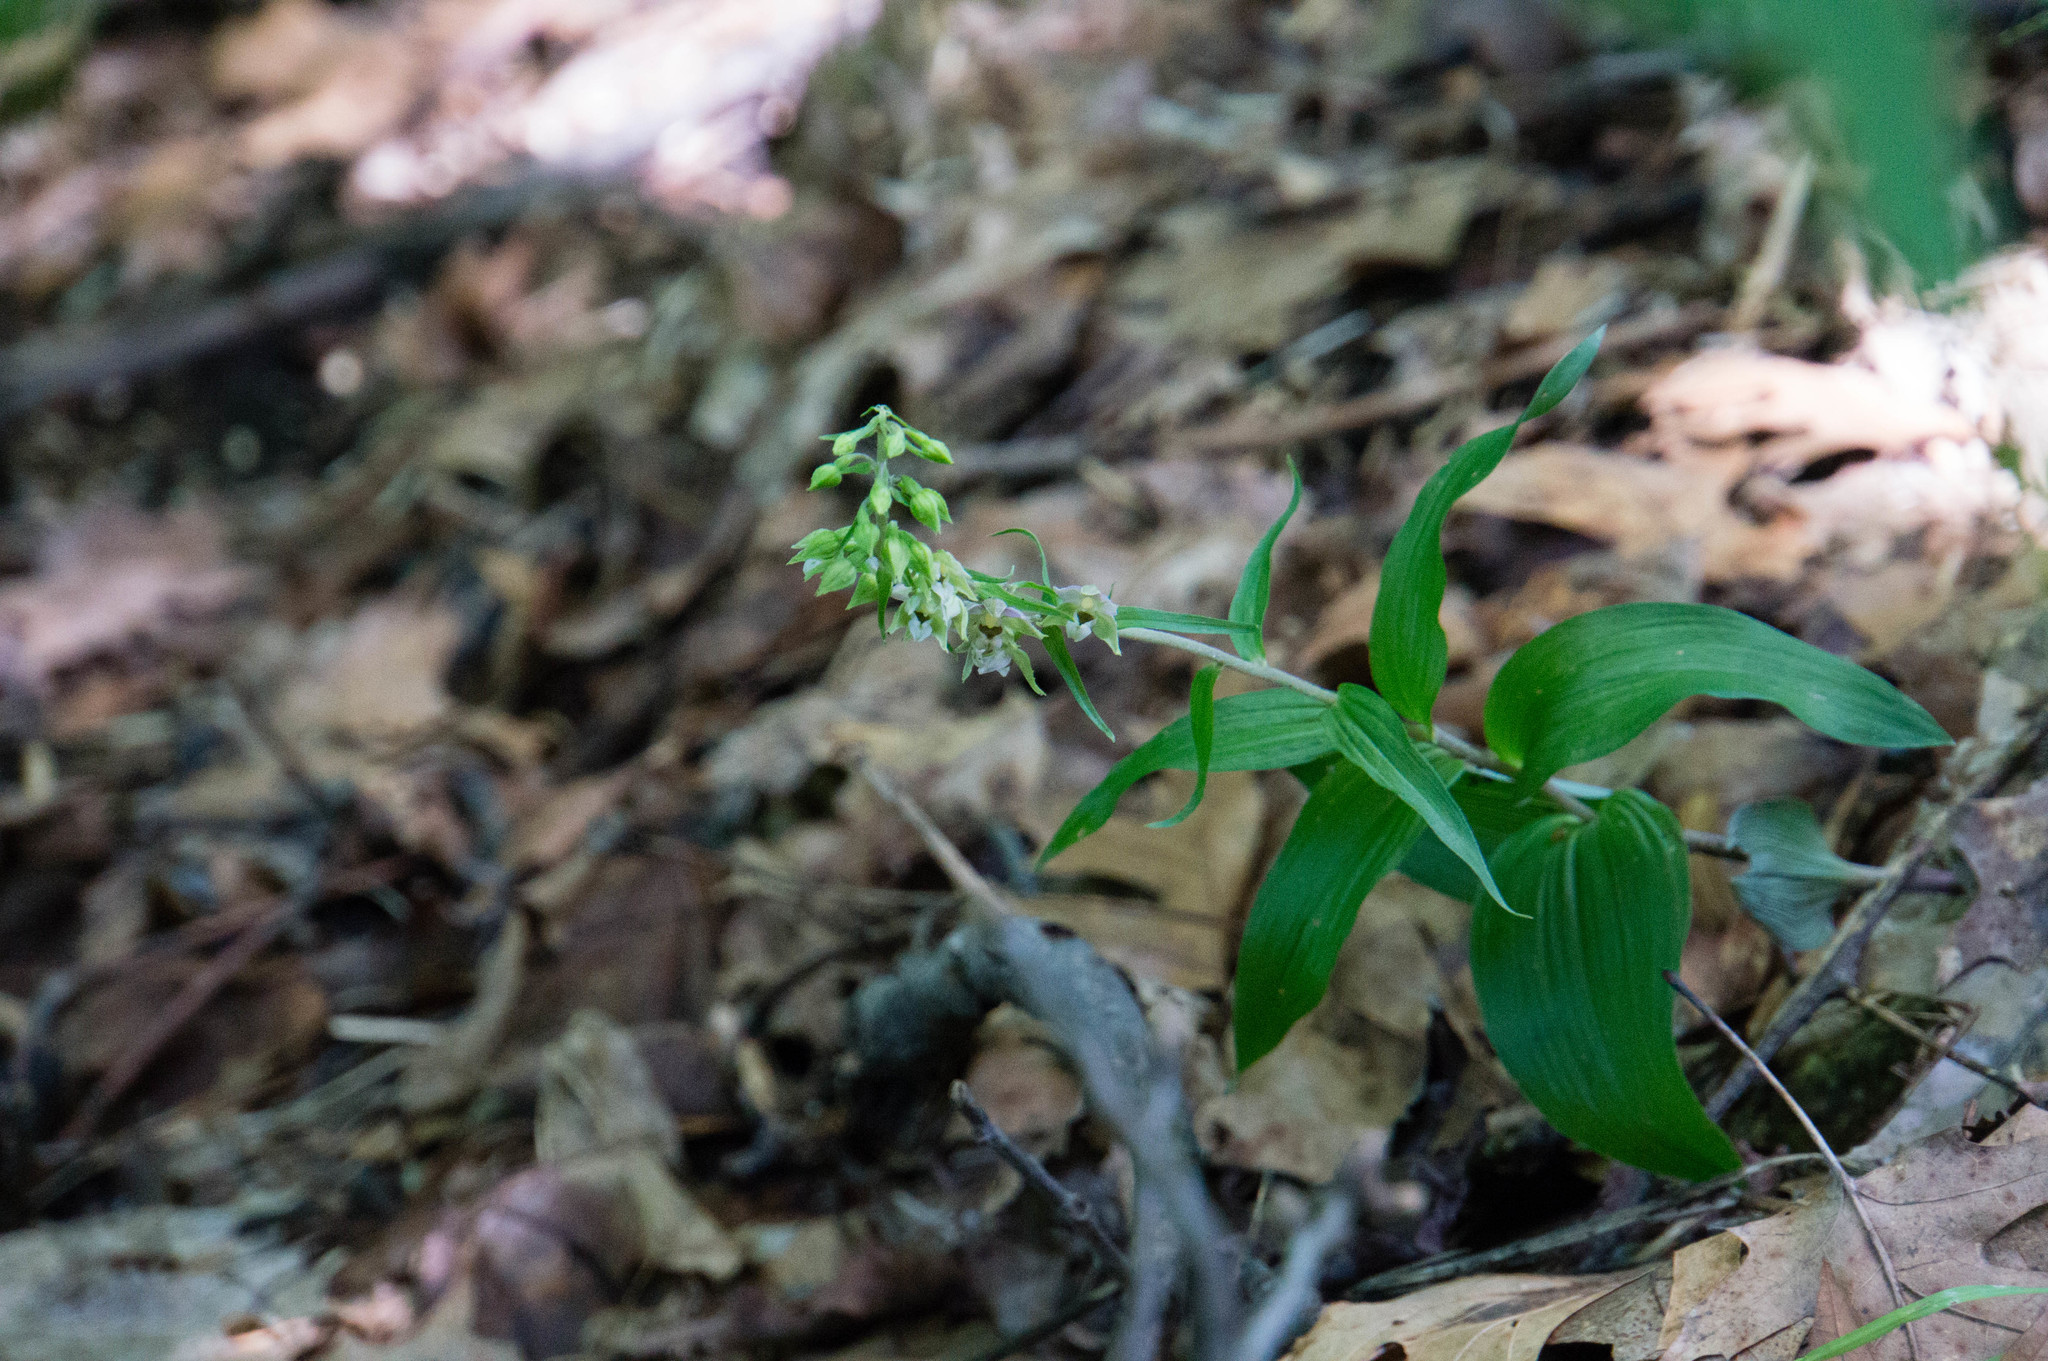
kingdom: Plantae
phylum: Tracheophyta
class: Liliopsida
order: Asparagales
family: Orchidaceae
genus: Epipactis
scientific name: Epipactis helleborine
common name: Broad-leaved helleborine
